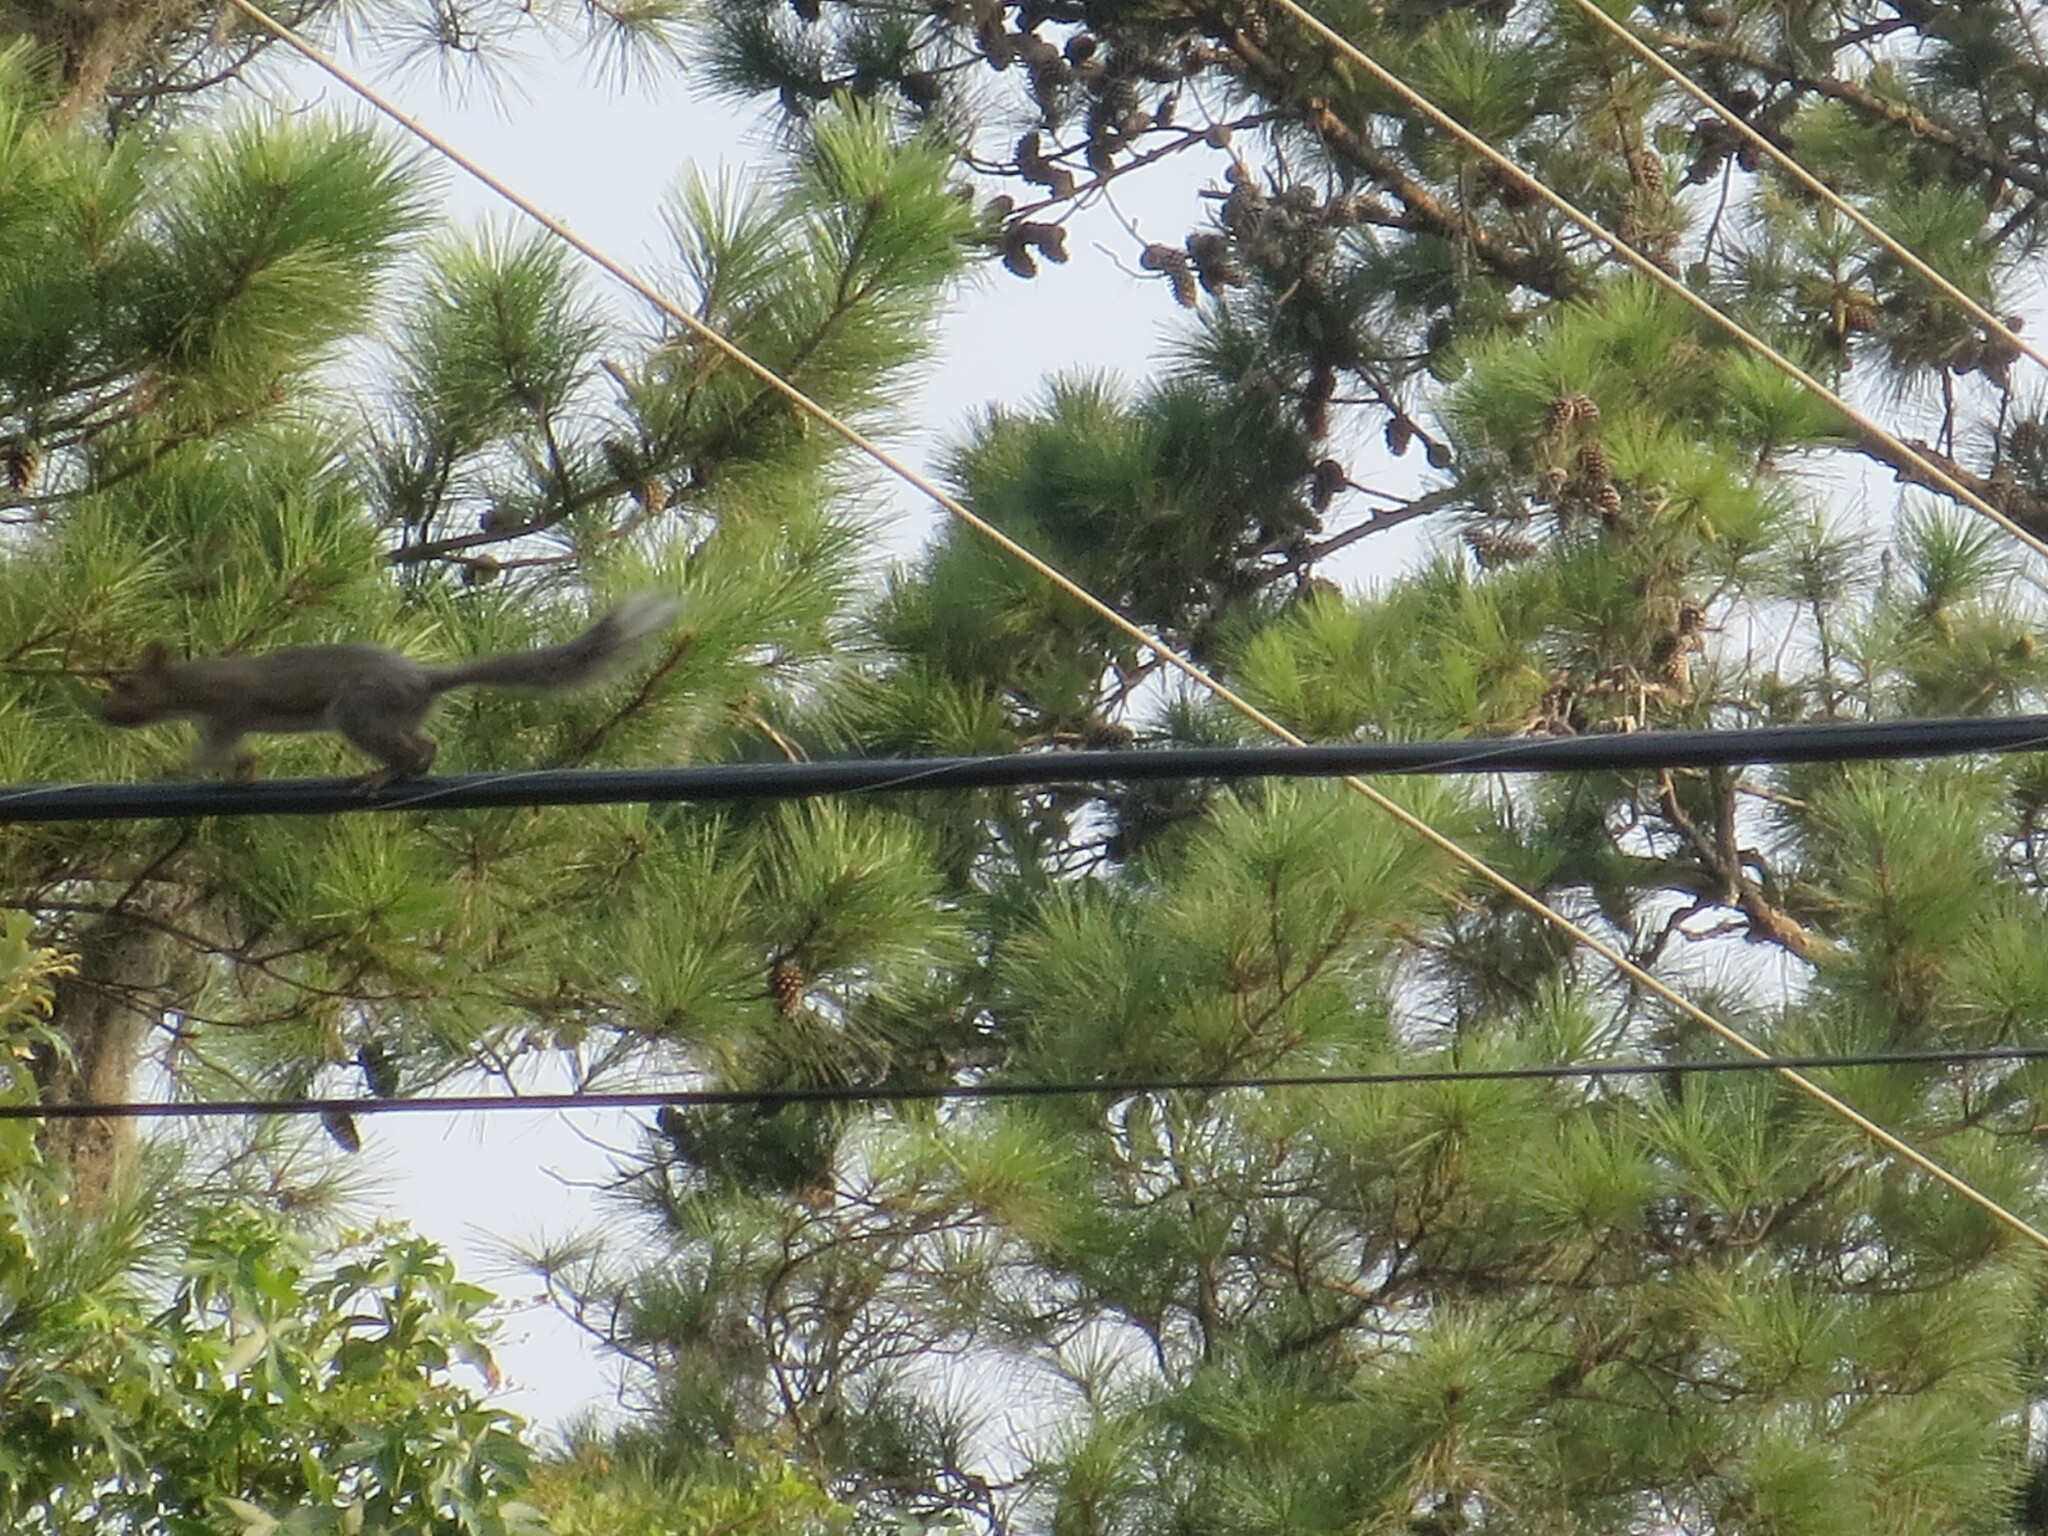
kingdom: Animalia
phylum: Chordata
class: Mammalia
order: Rodentia
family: Sciuridae
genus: Sciurus
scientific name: Sciurus carolinensis
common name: Eastern gray squirrel
